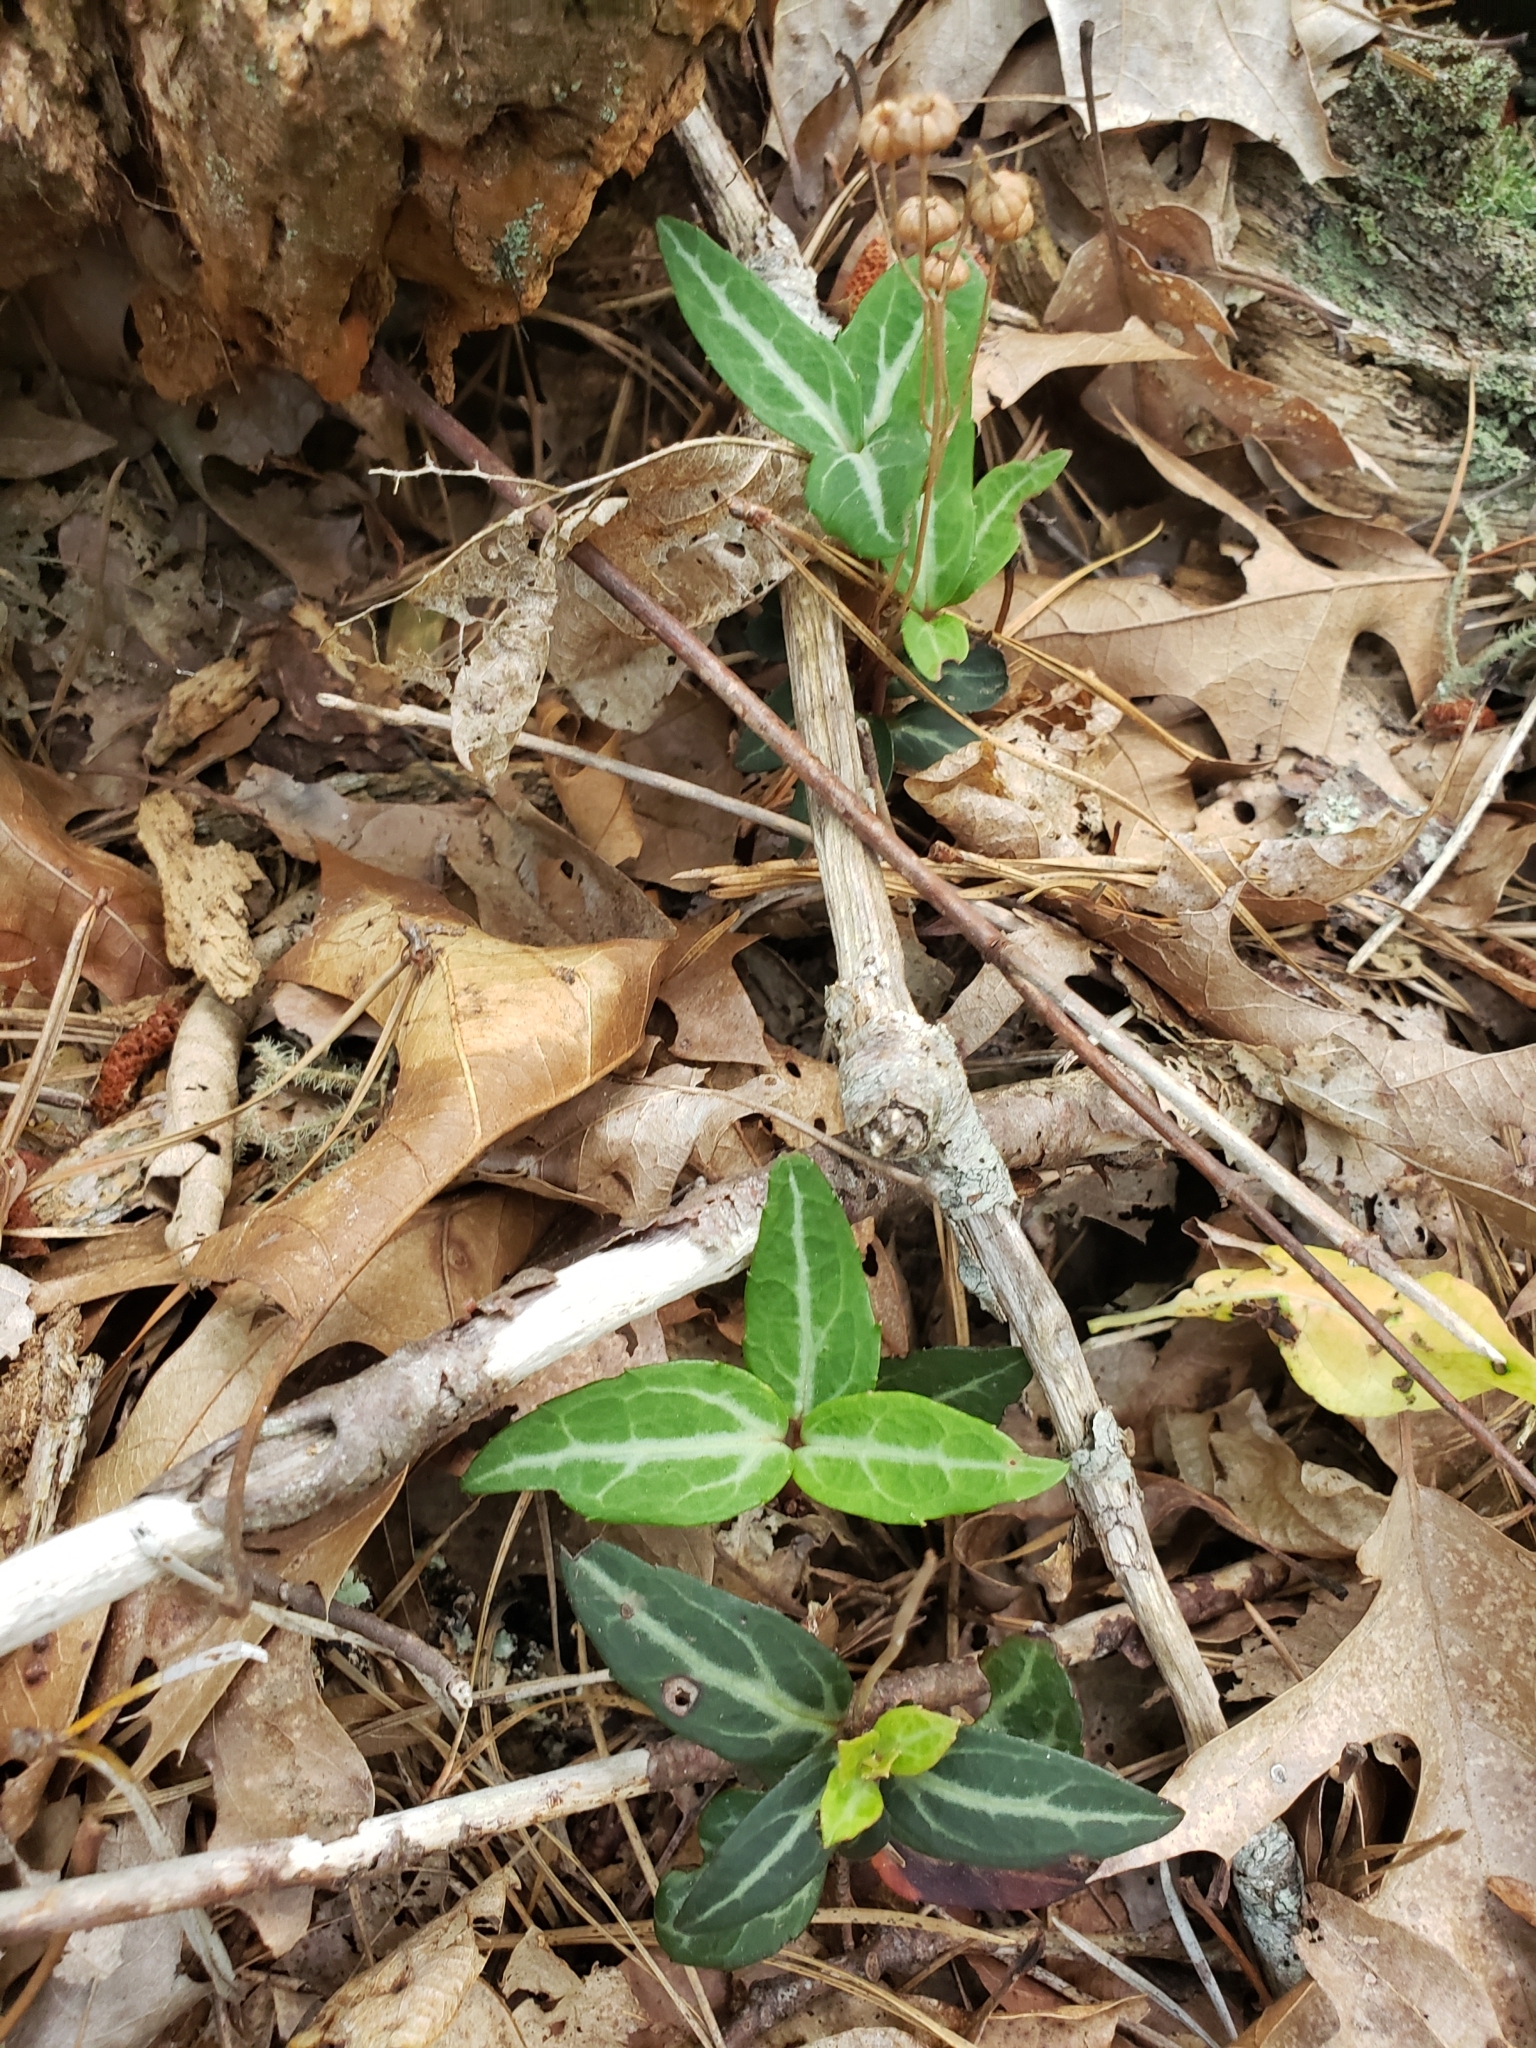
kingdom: Plantae
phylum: Tracheophyta
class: Magnoliopsida
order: Ericales
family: Ericaceae
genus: Chimaphila
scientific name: Chimaphila maculata
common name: Spotted pipsissewa
